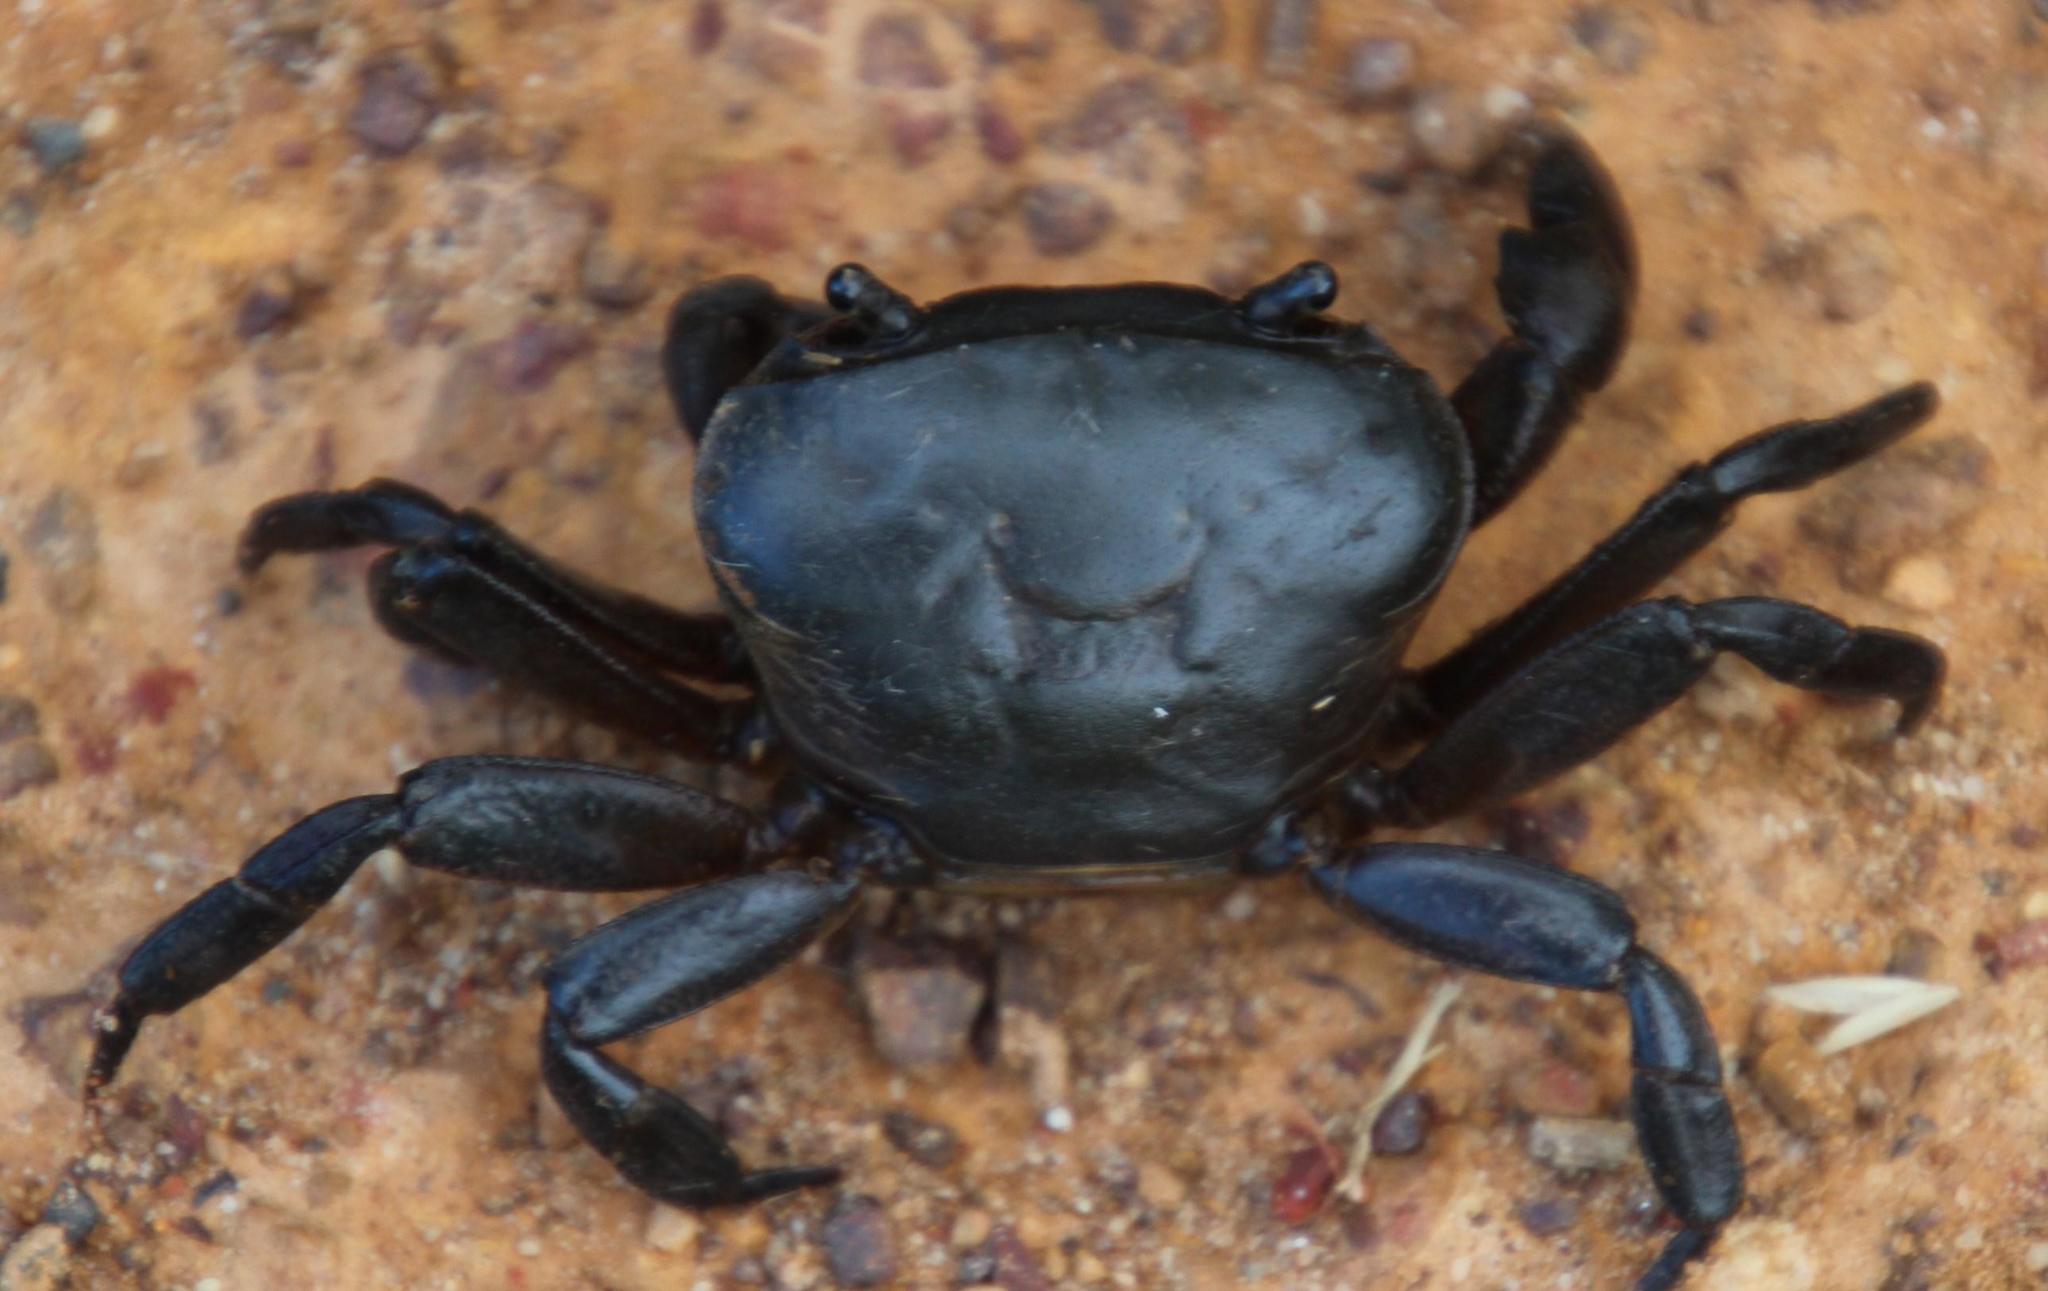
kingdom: Animalia
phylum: Arthropoda
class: Malacostraca
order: Decapoda
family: Potamonautidae
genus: Potamonautes
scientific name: Potamonautes perlatus
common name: Cape river crab
